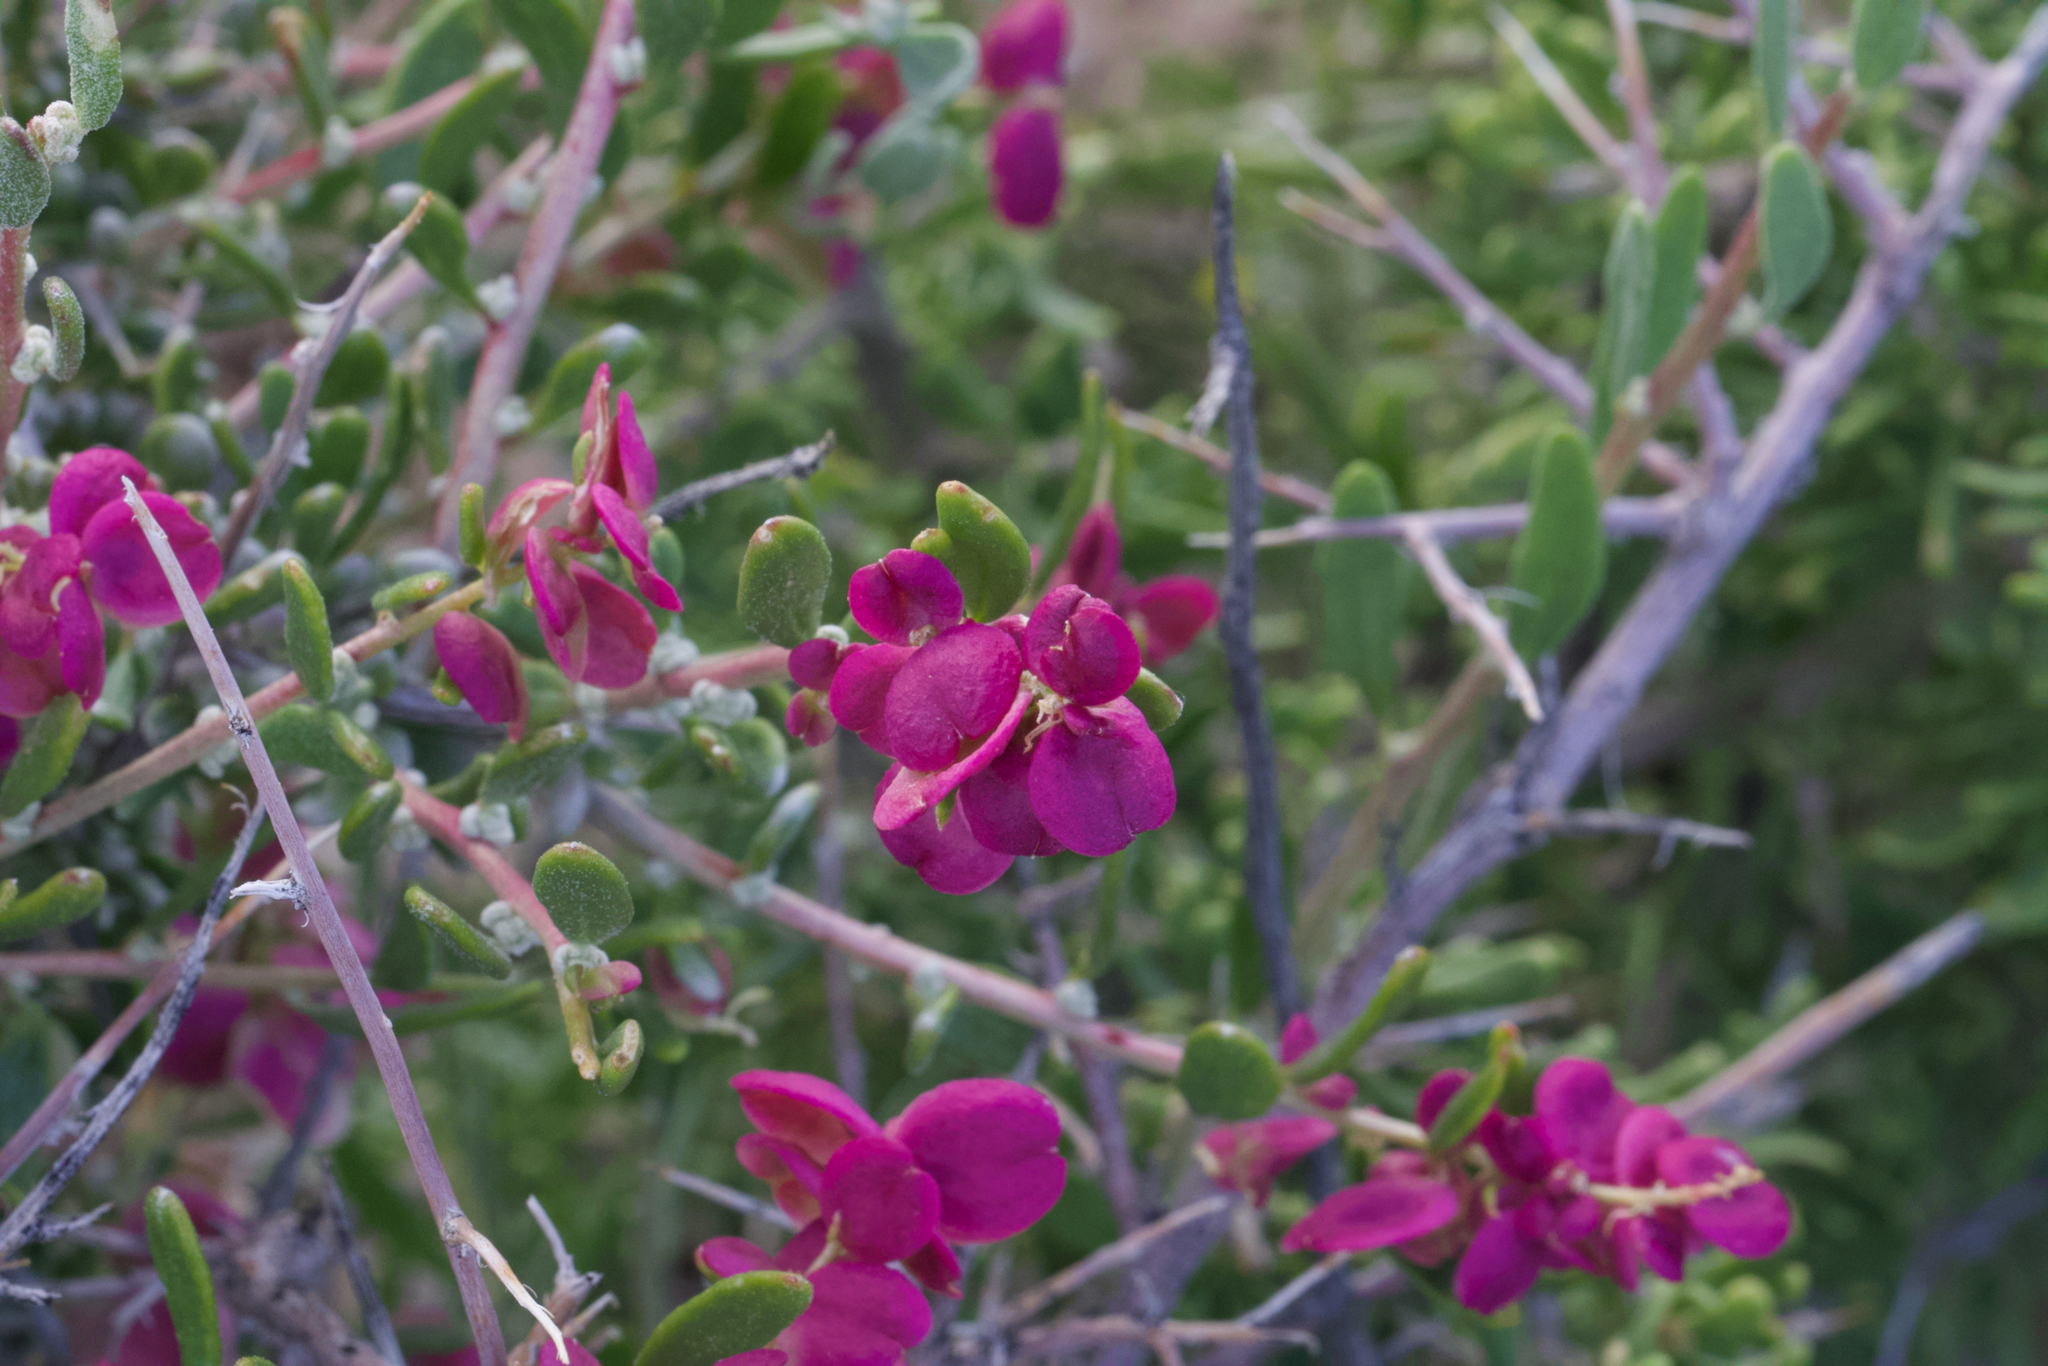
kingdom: Plantae
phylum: Tracheophyta
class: Magnoliopsida
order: Caryophyllales
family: Amaranthaceae
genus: Grayia
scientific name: Grayia spinosa
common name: Spiny hopsage
